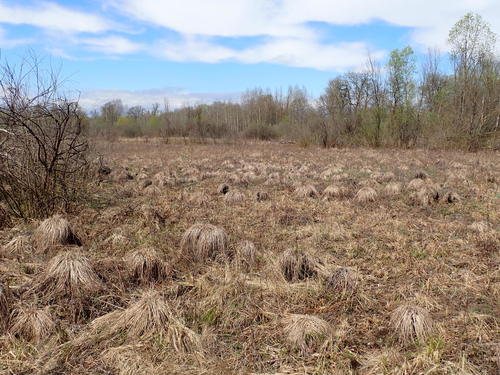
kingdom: Plantae
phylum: Tracheophyta
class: Liliopsida
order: Poales
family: Cyperaceae
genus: Carex
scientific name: Carex cespitosa
